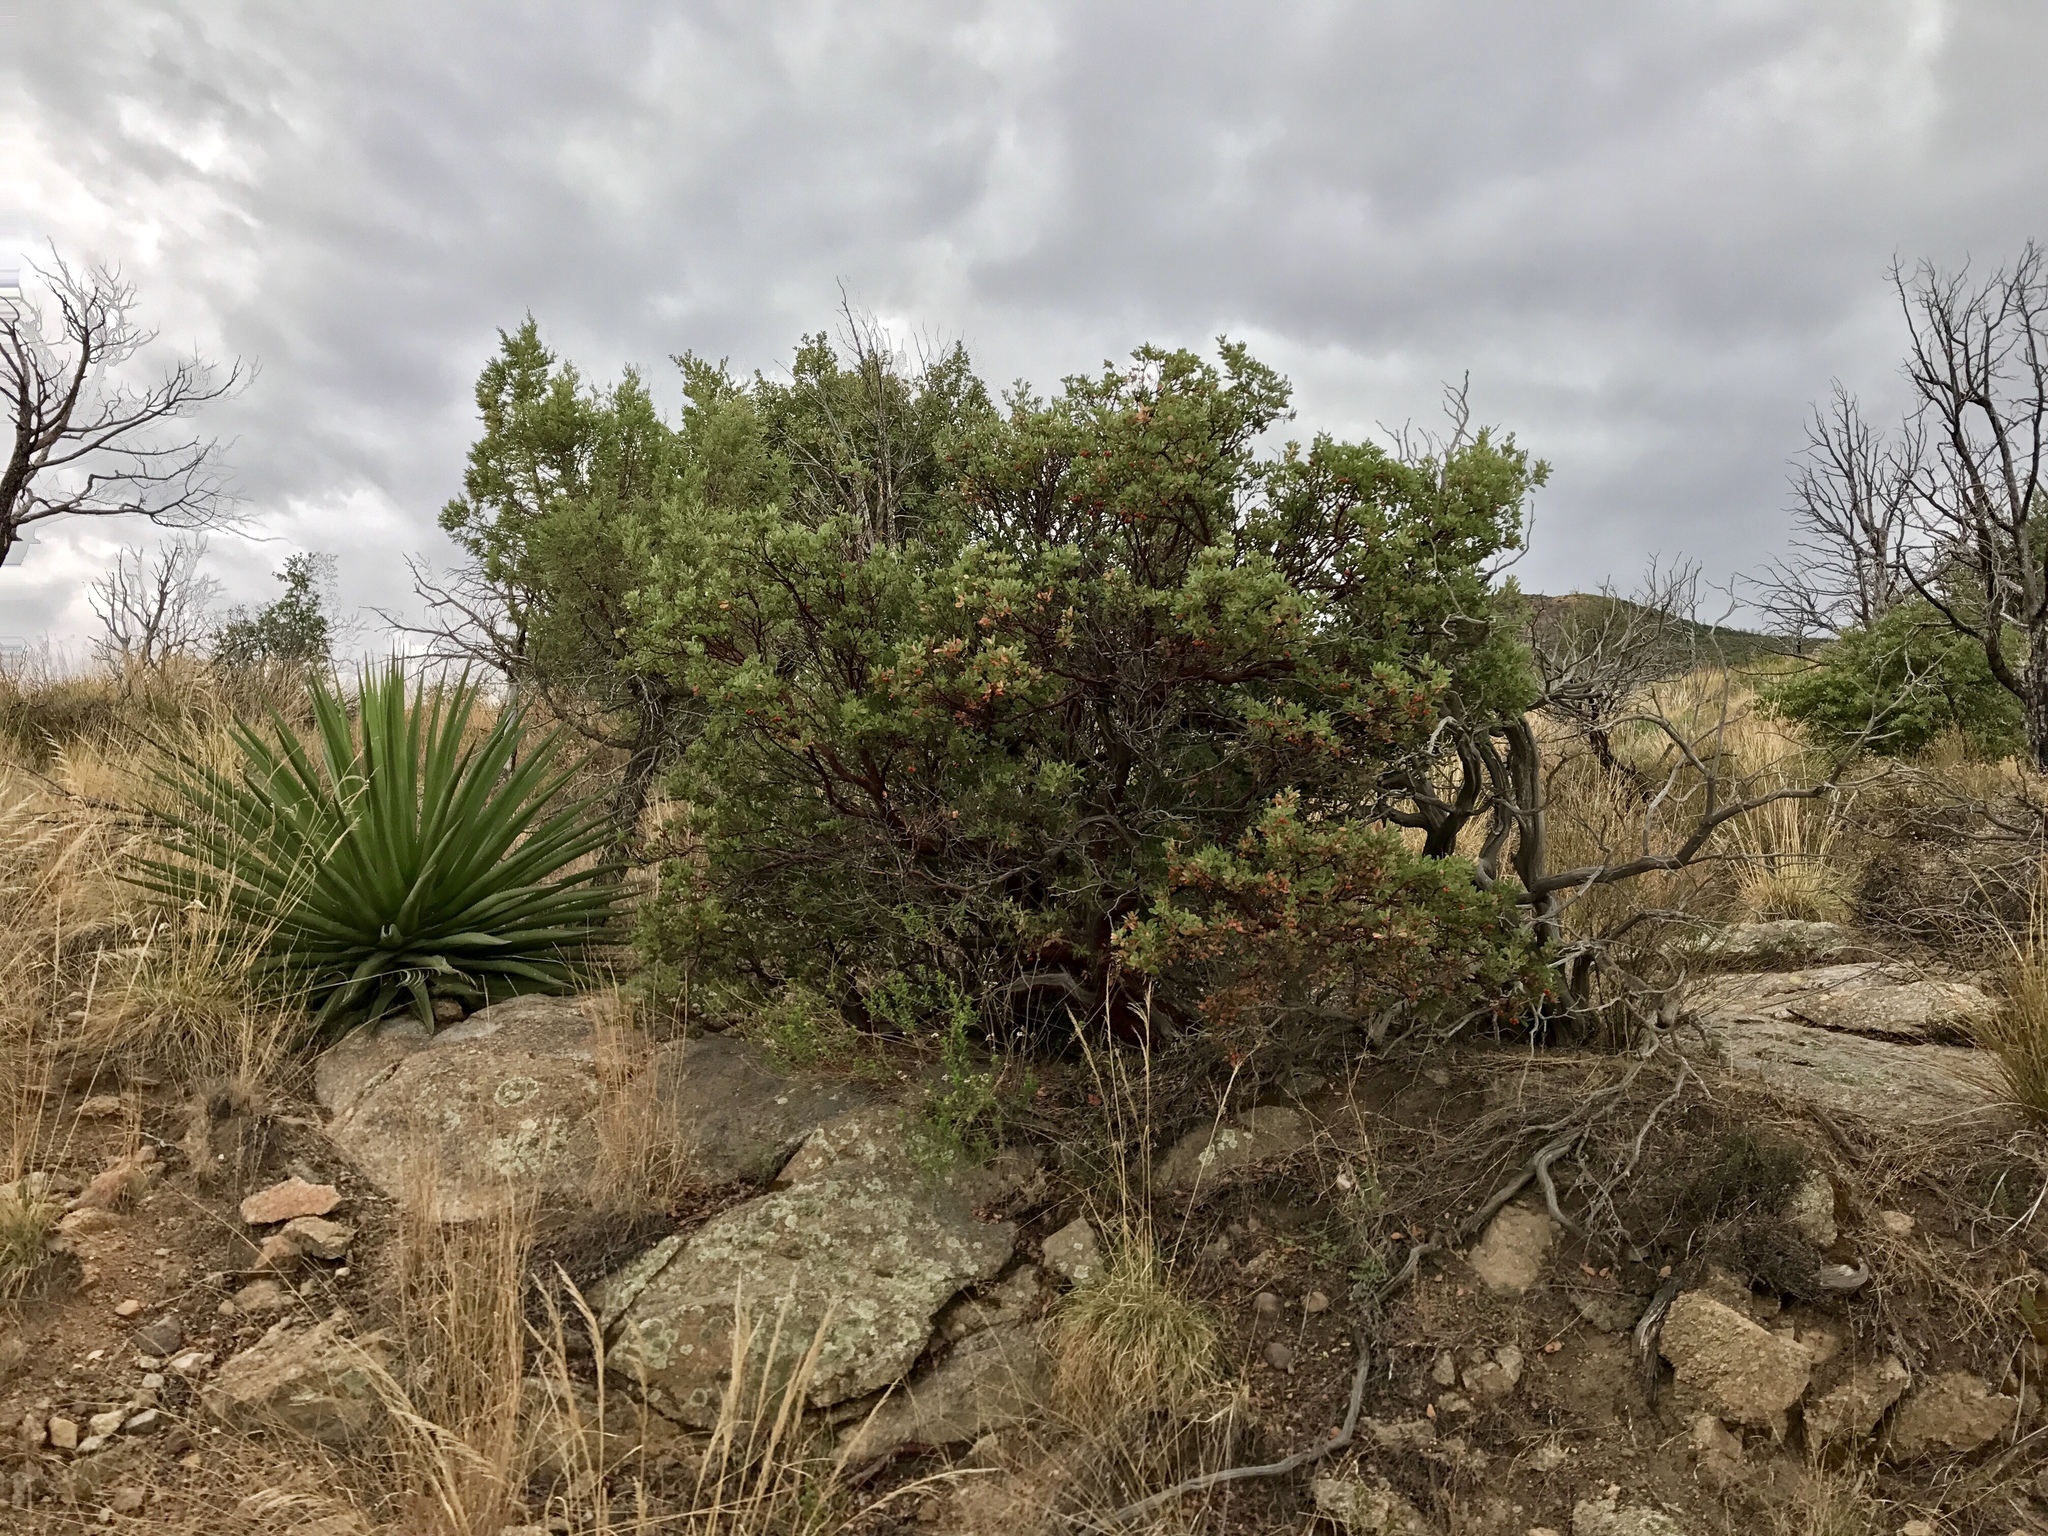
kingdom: Plantae
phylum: Tracheophyta
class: Magnoliopsida
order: Ericales
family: Ericaceae
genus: Arctostaphylos
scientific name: Arctostaphylos pungens
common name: Mexican manzanita
